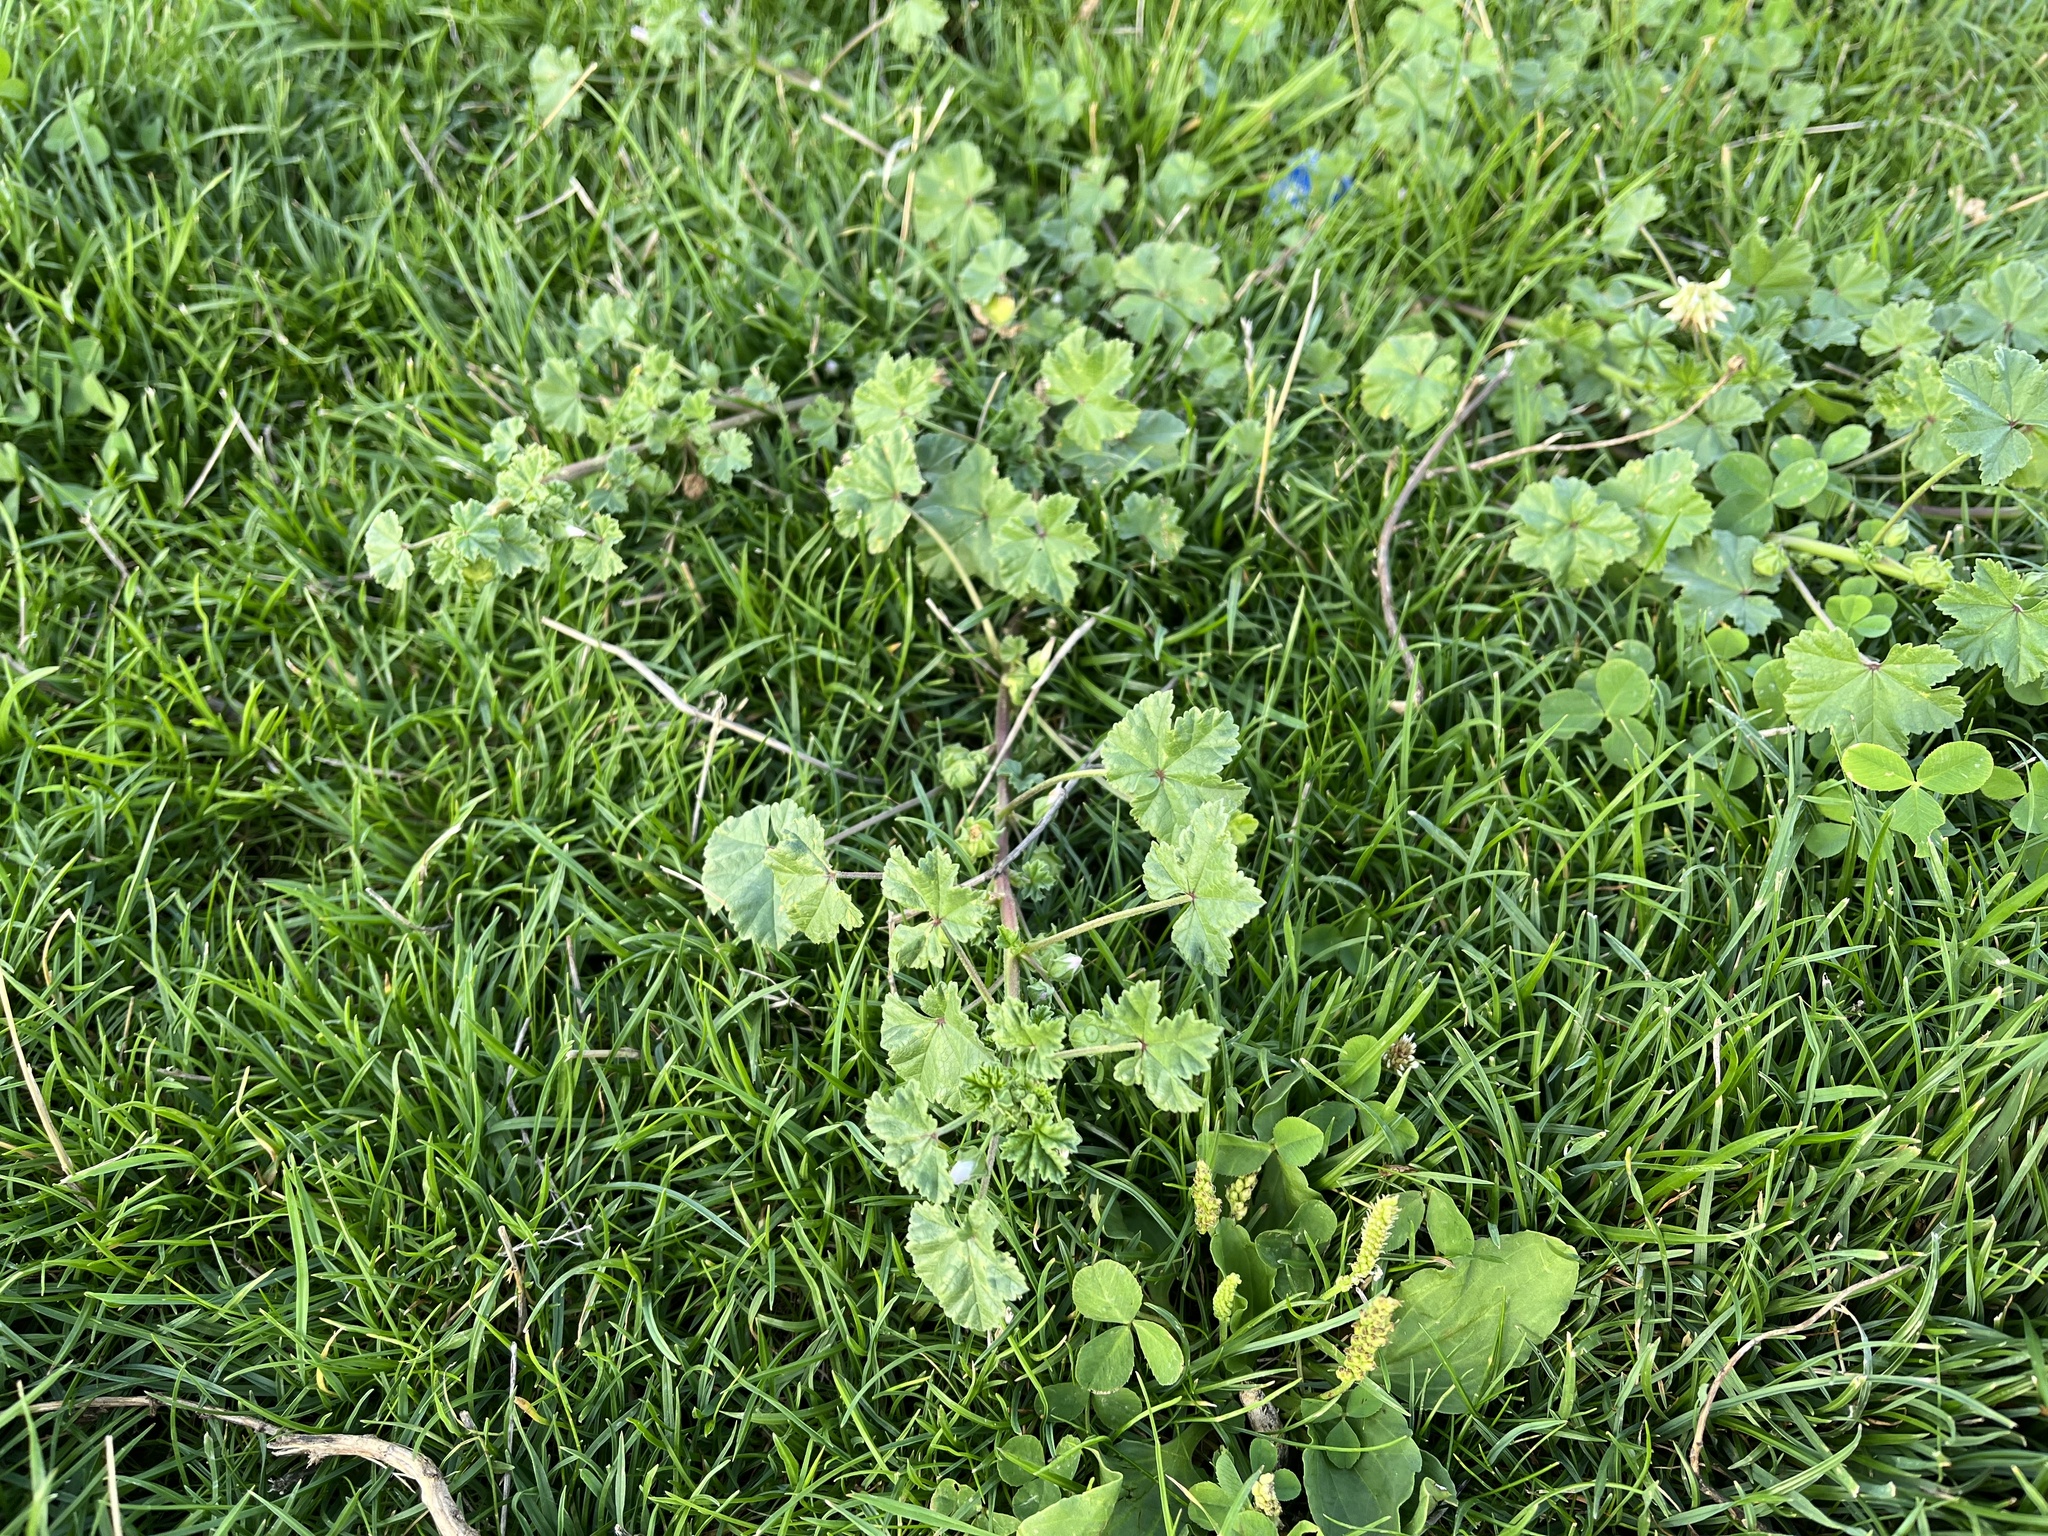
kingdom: Plantae
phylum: Tracheophyta
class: Magnoliopsida
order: Malvales
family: Malvaceae
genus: Malva
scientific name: Malva neglecta
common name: Common mallow
